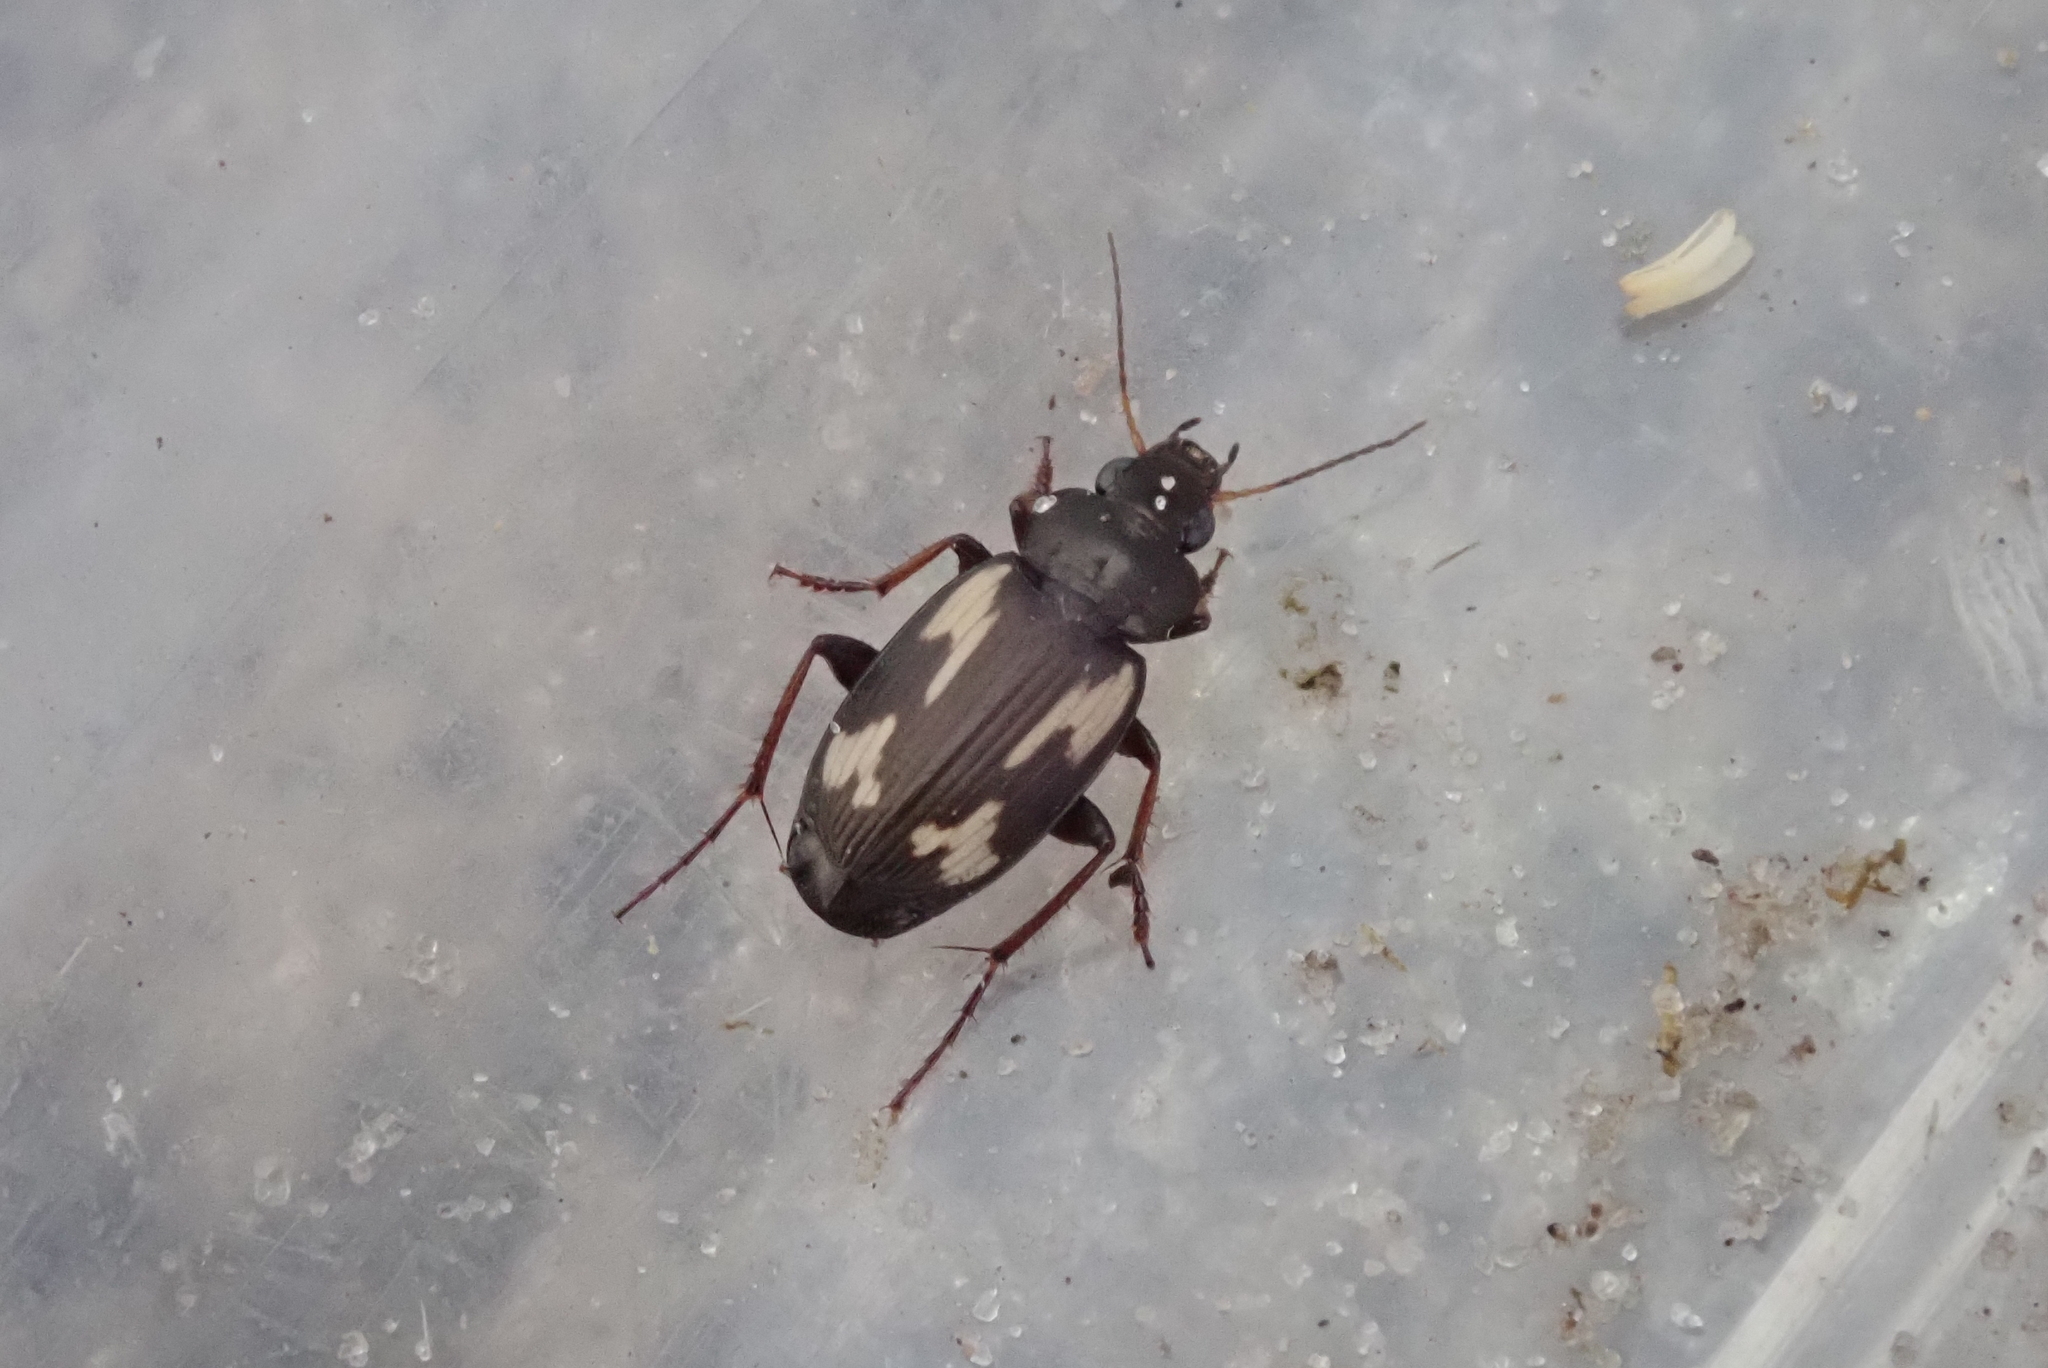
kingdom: Animalia
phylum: Arthropoda
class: Insecta
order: Coleoptera
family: Carabidae
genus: Tetragonoderus
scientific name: Tetragonoderus thunbergi
